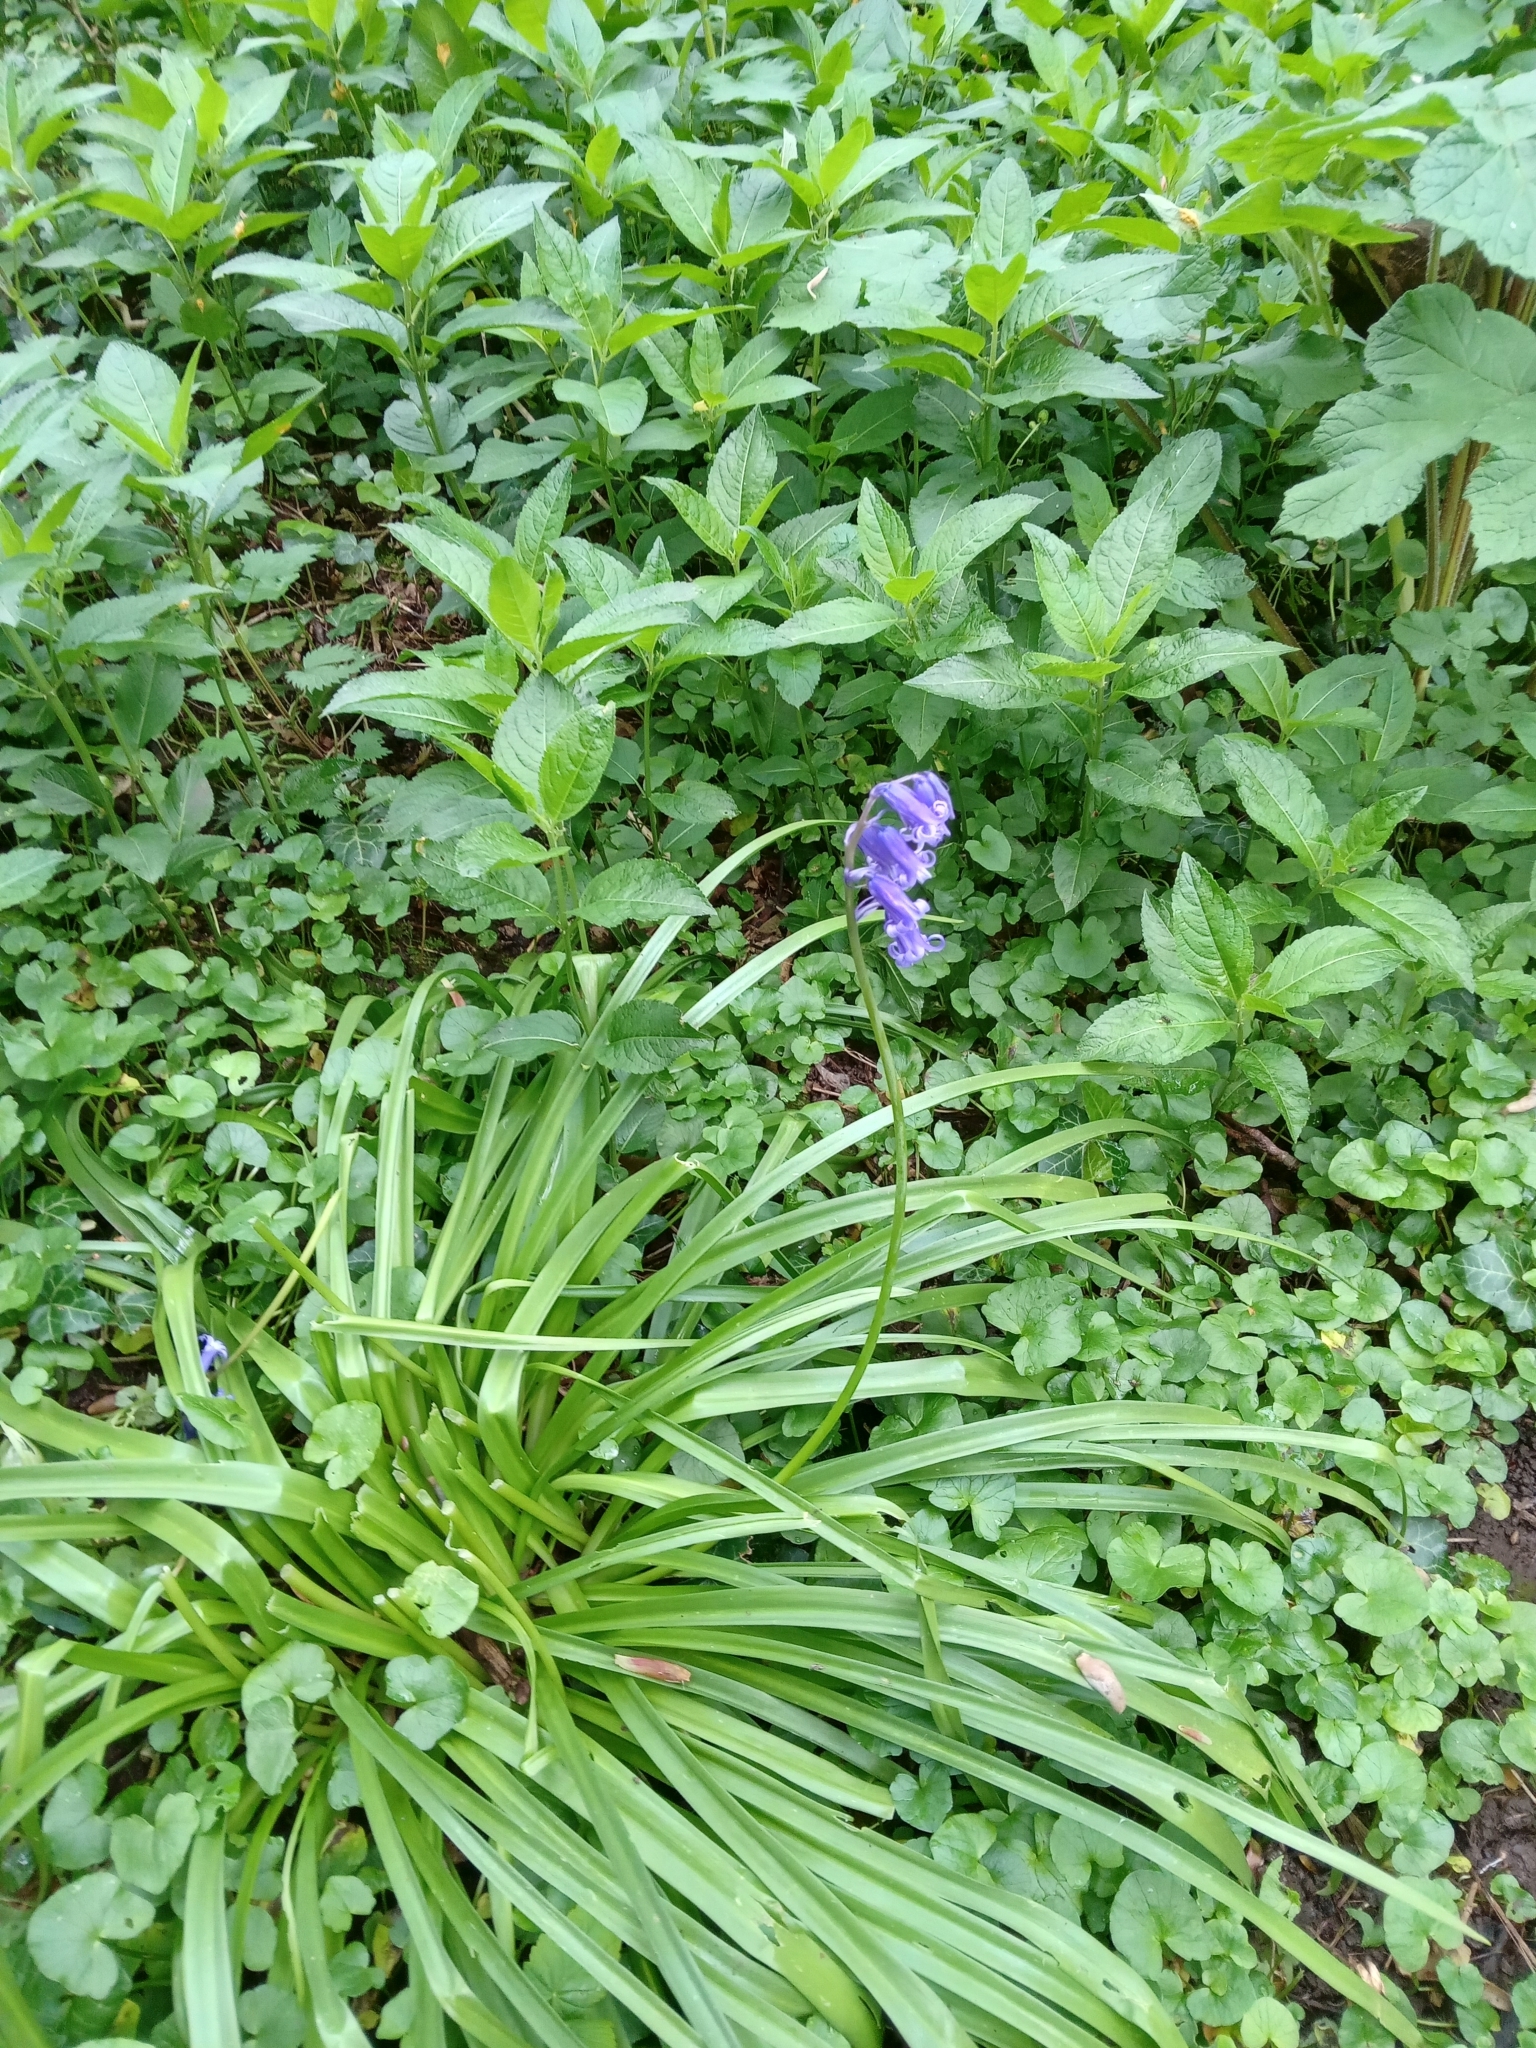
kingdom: Plantae
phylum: Tracheophyta
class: Liliopsida
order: Asparagales
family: Asparagaceae
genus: Hyacinthoides
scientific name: Hyacinthoides non-scripta
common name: Bluebell
